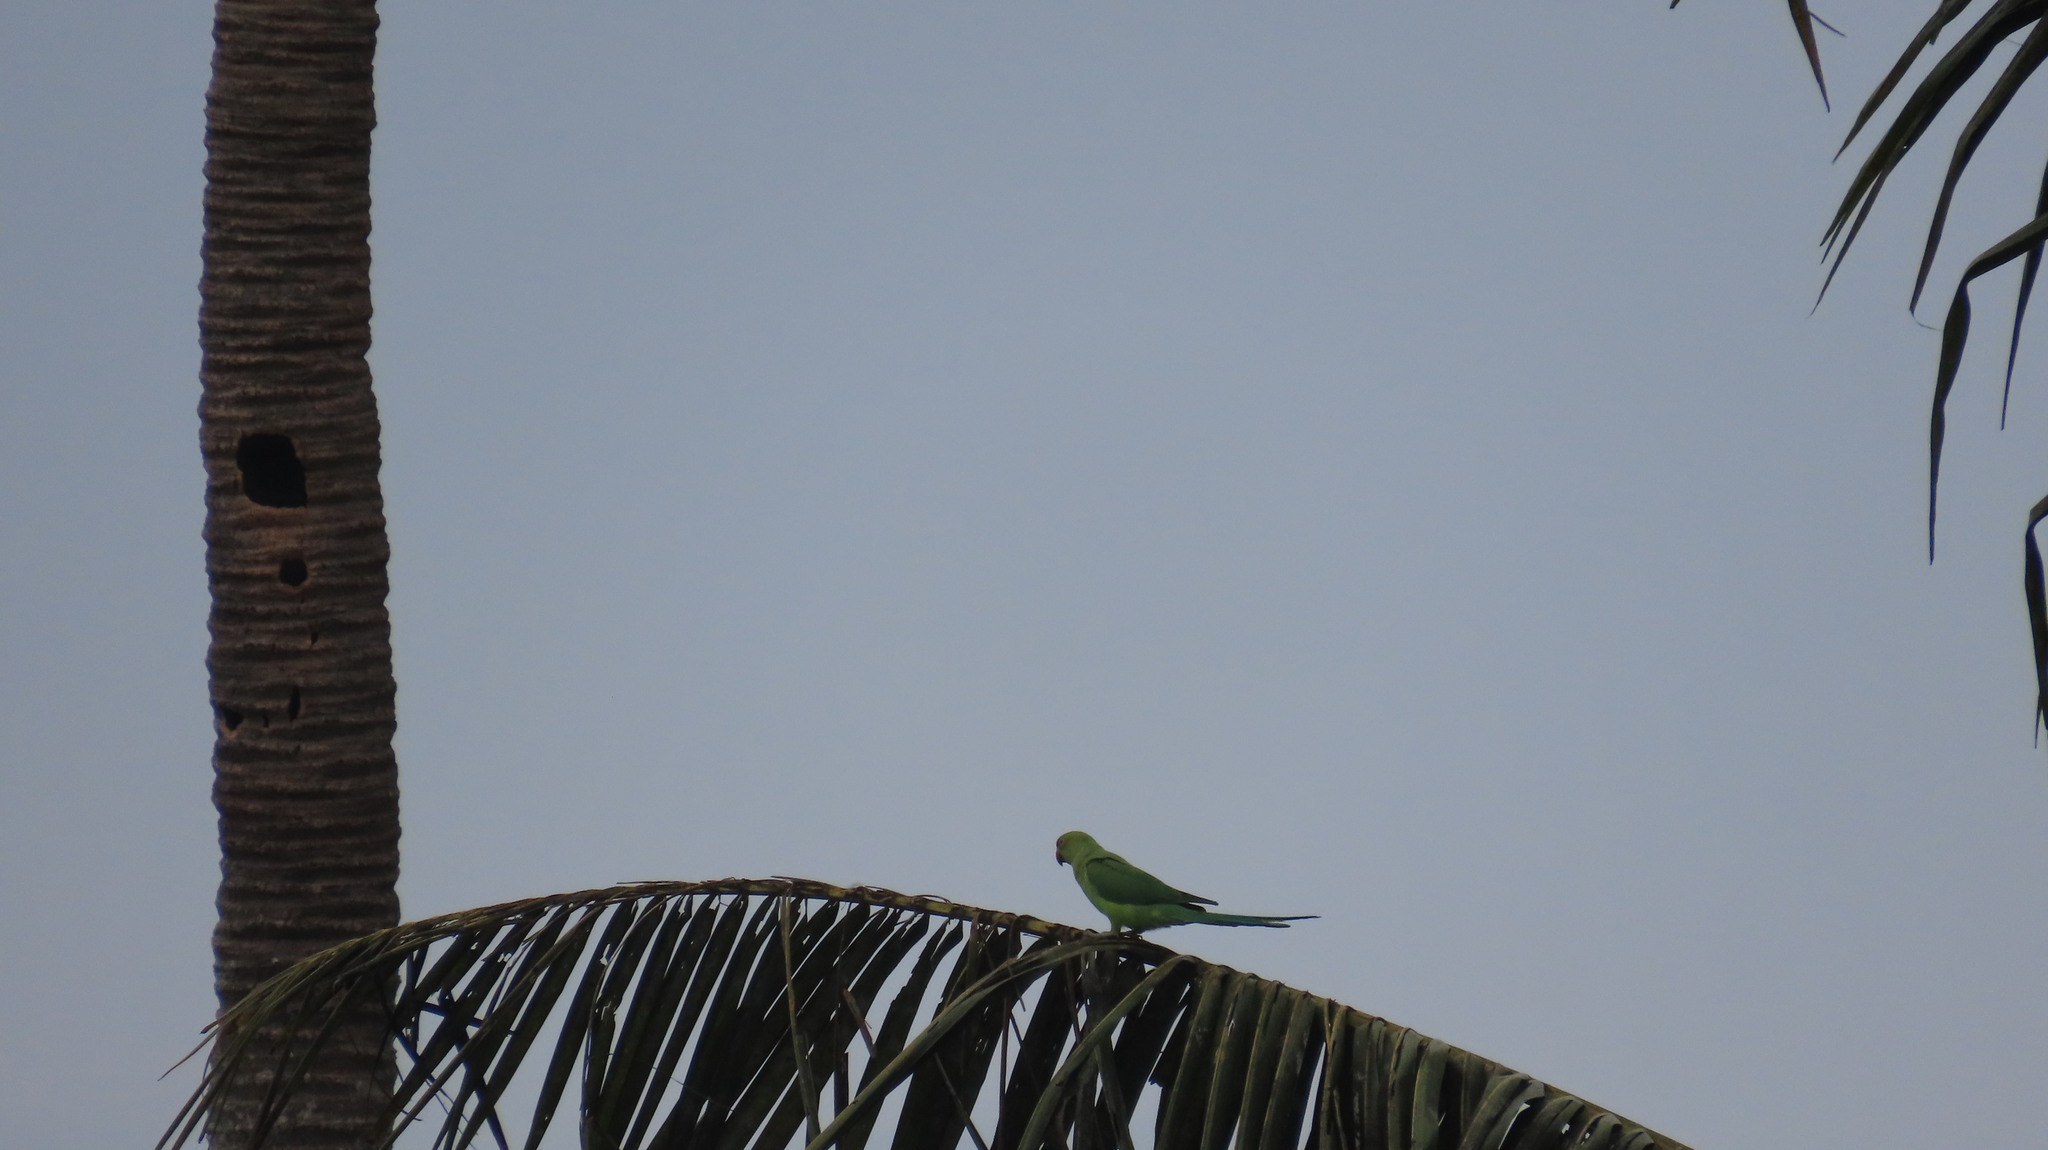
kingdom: Animalia
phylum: Chordata
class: Aves
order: Psittaciformes
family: Psittacidae
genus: Psittacula
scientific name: Psittacula krameri
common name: Rose-ringed parakeet
